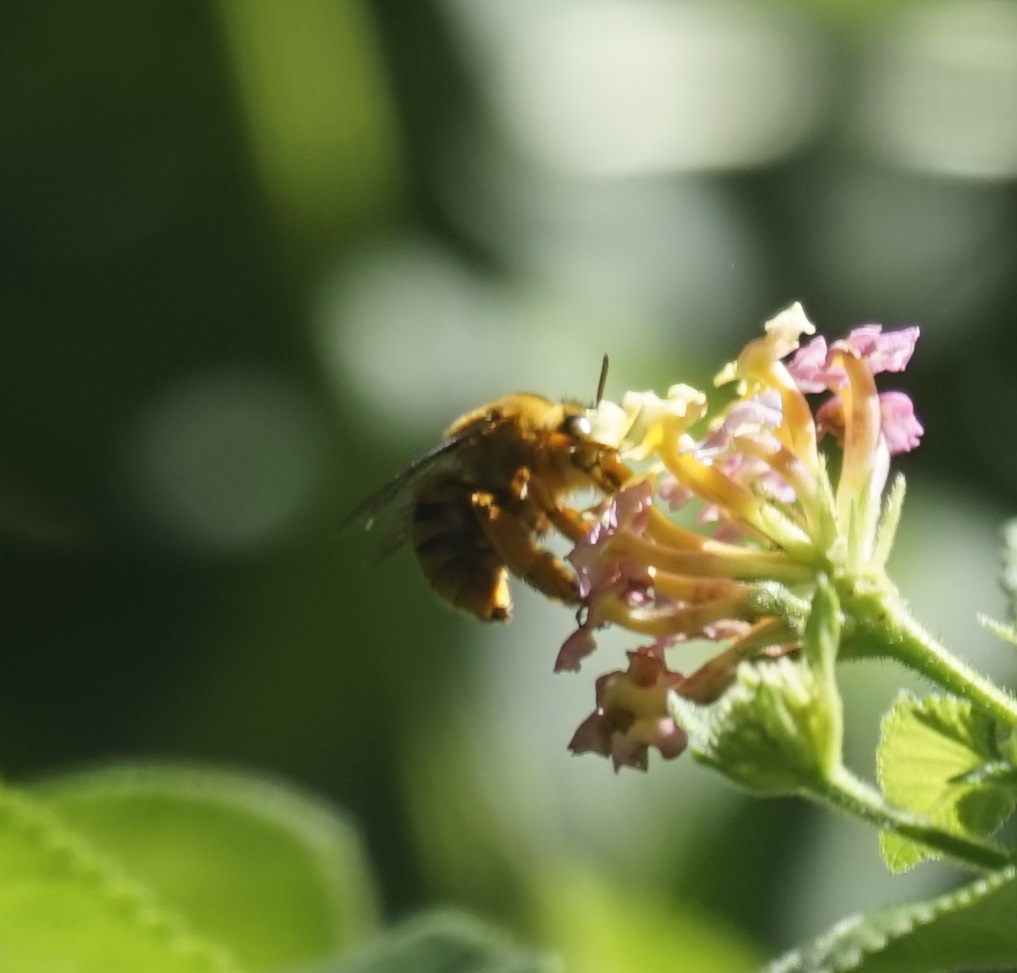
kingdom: Animalia
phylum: Arthropoda
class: Insecta
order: Hymenoptera
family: Apidae
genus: Amegilla
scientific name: Amegilla bombiformis
